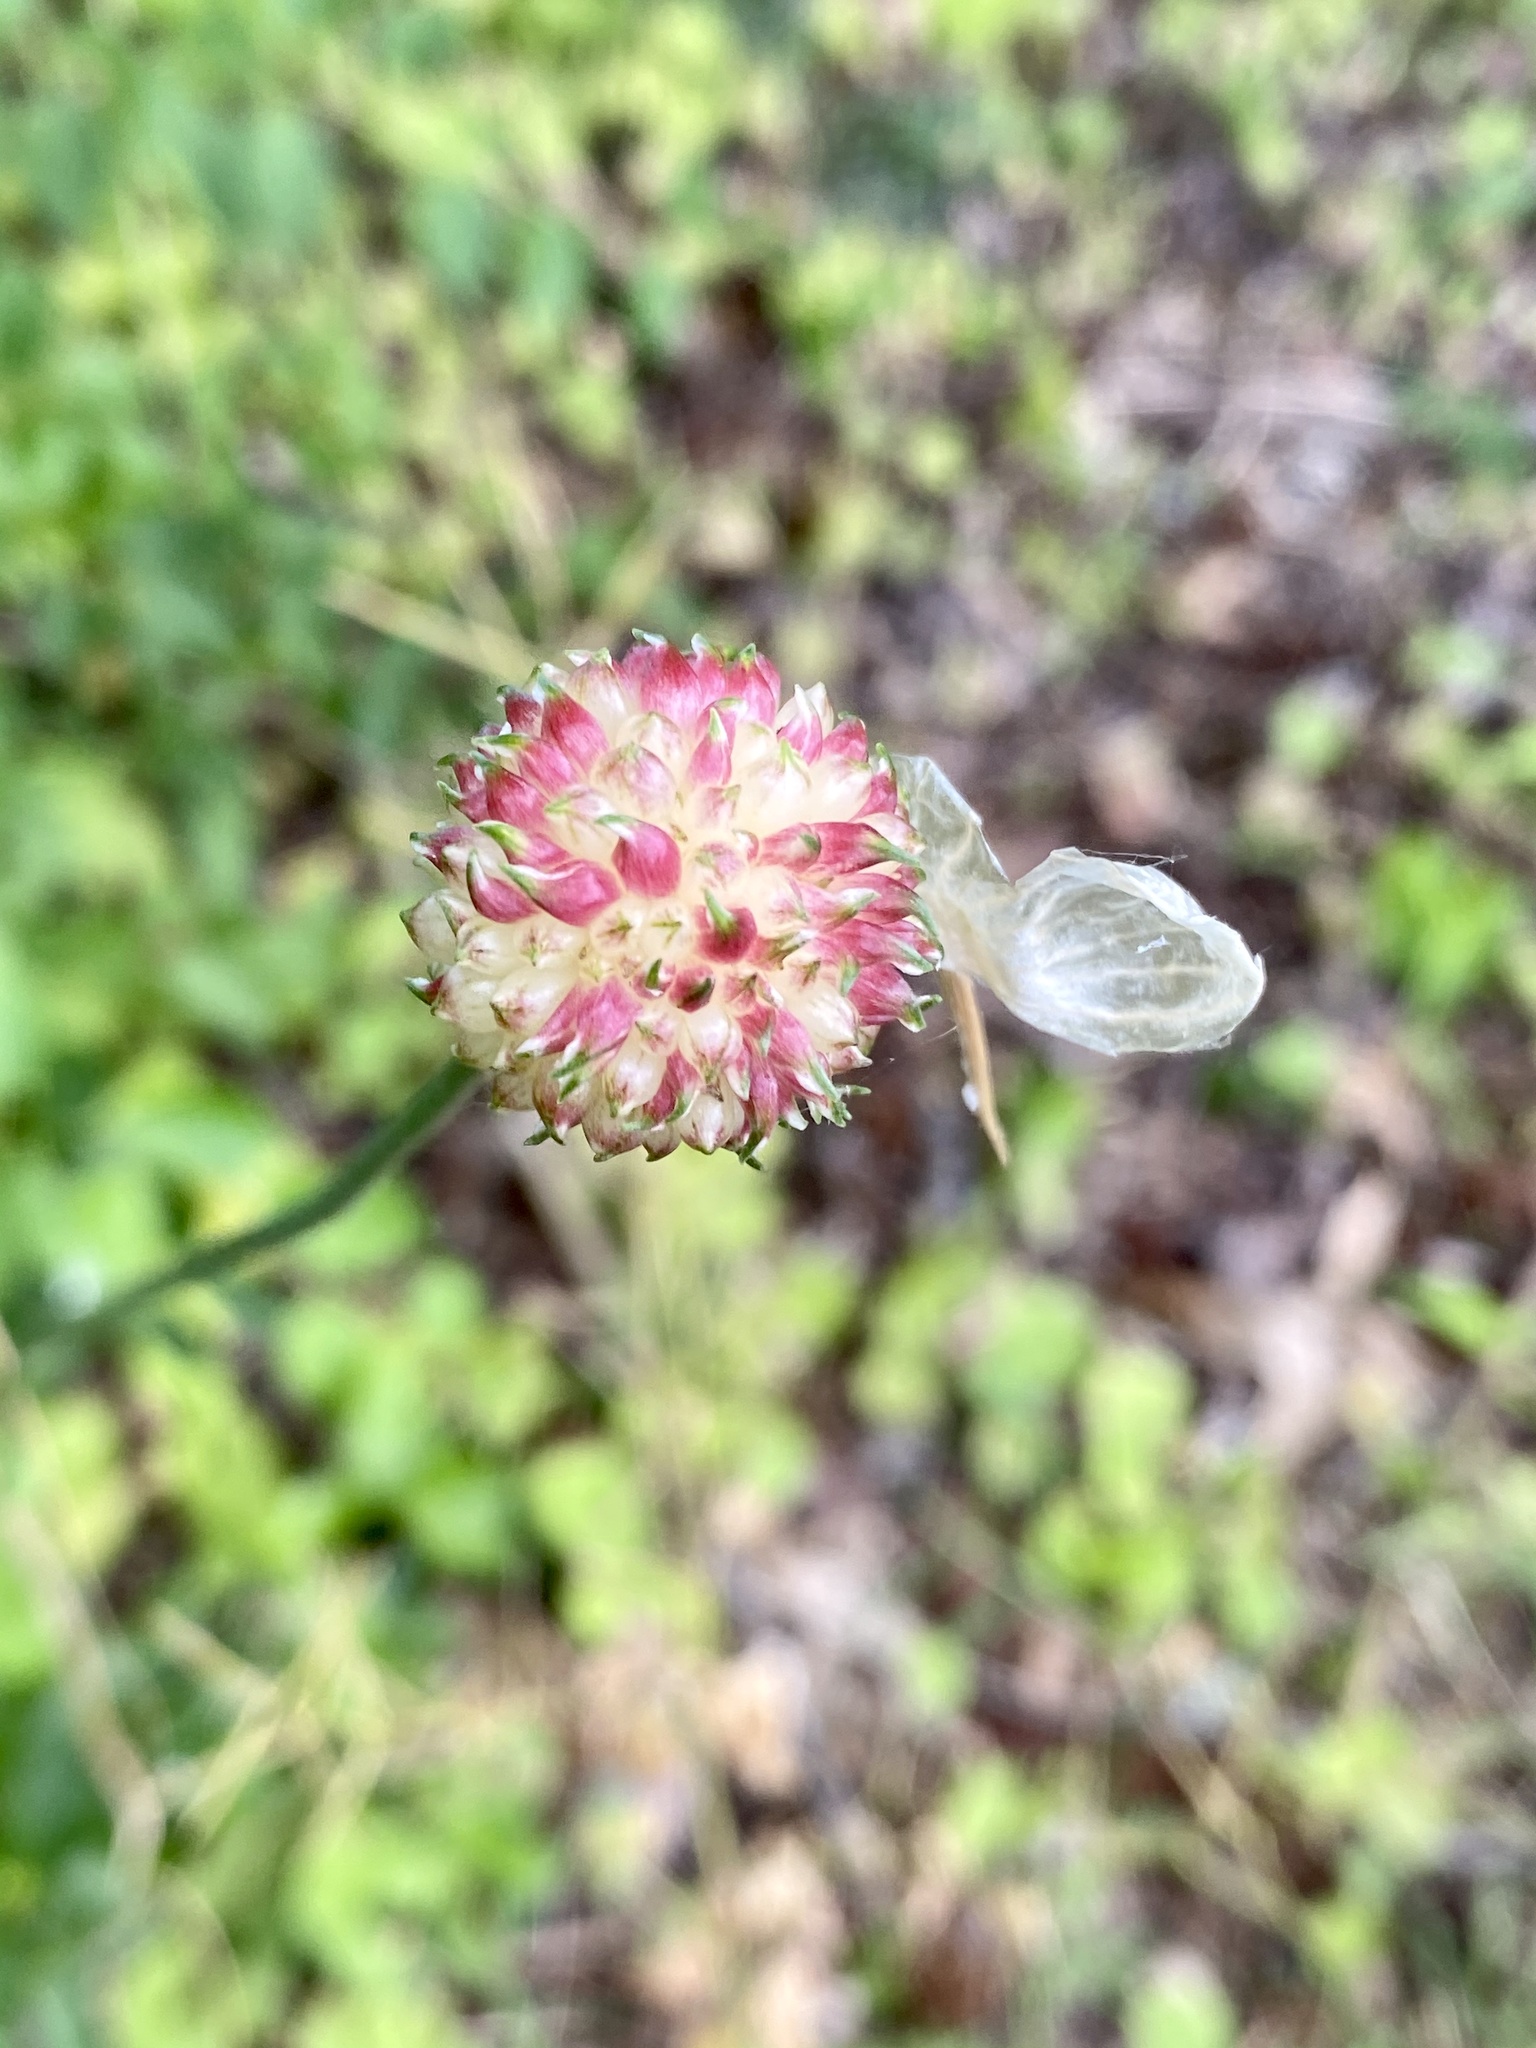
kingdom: Plantae
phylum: Tracheophyta
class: Liliopsida
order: Asparagales
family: Amaryllidaceae
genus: Allium
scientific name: Allium vineale
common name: Crow garlic
